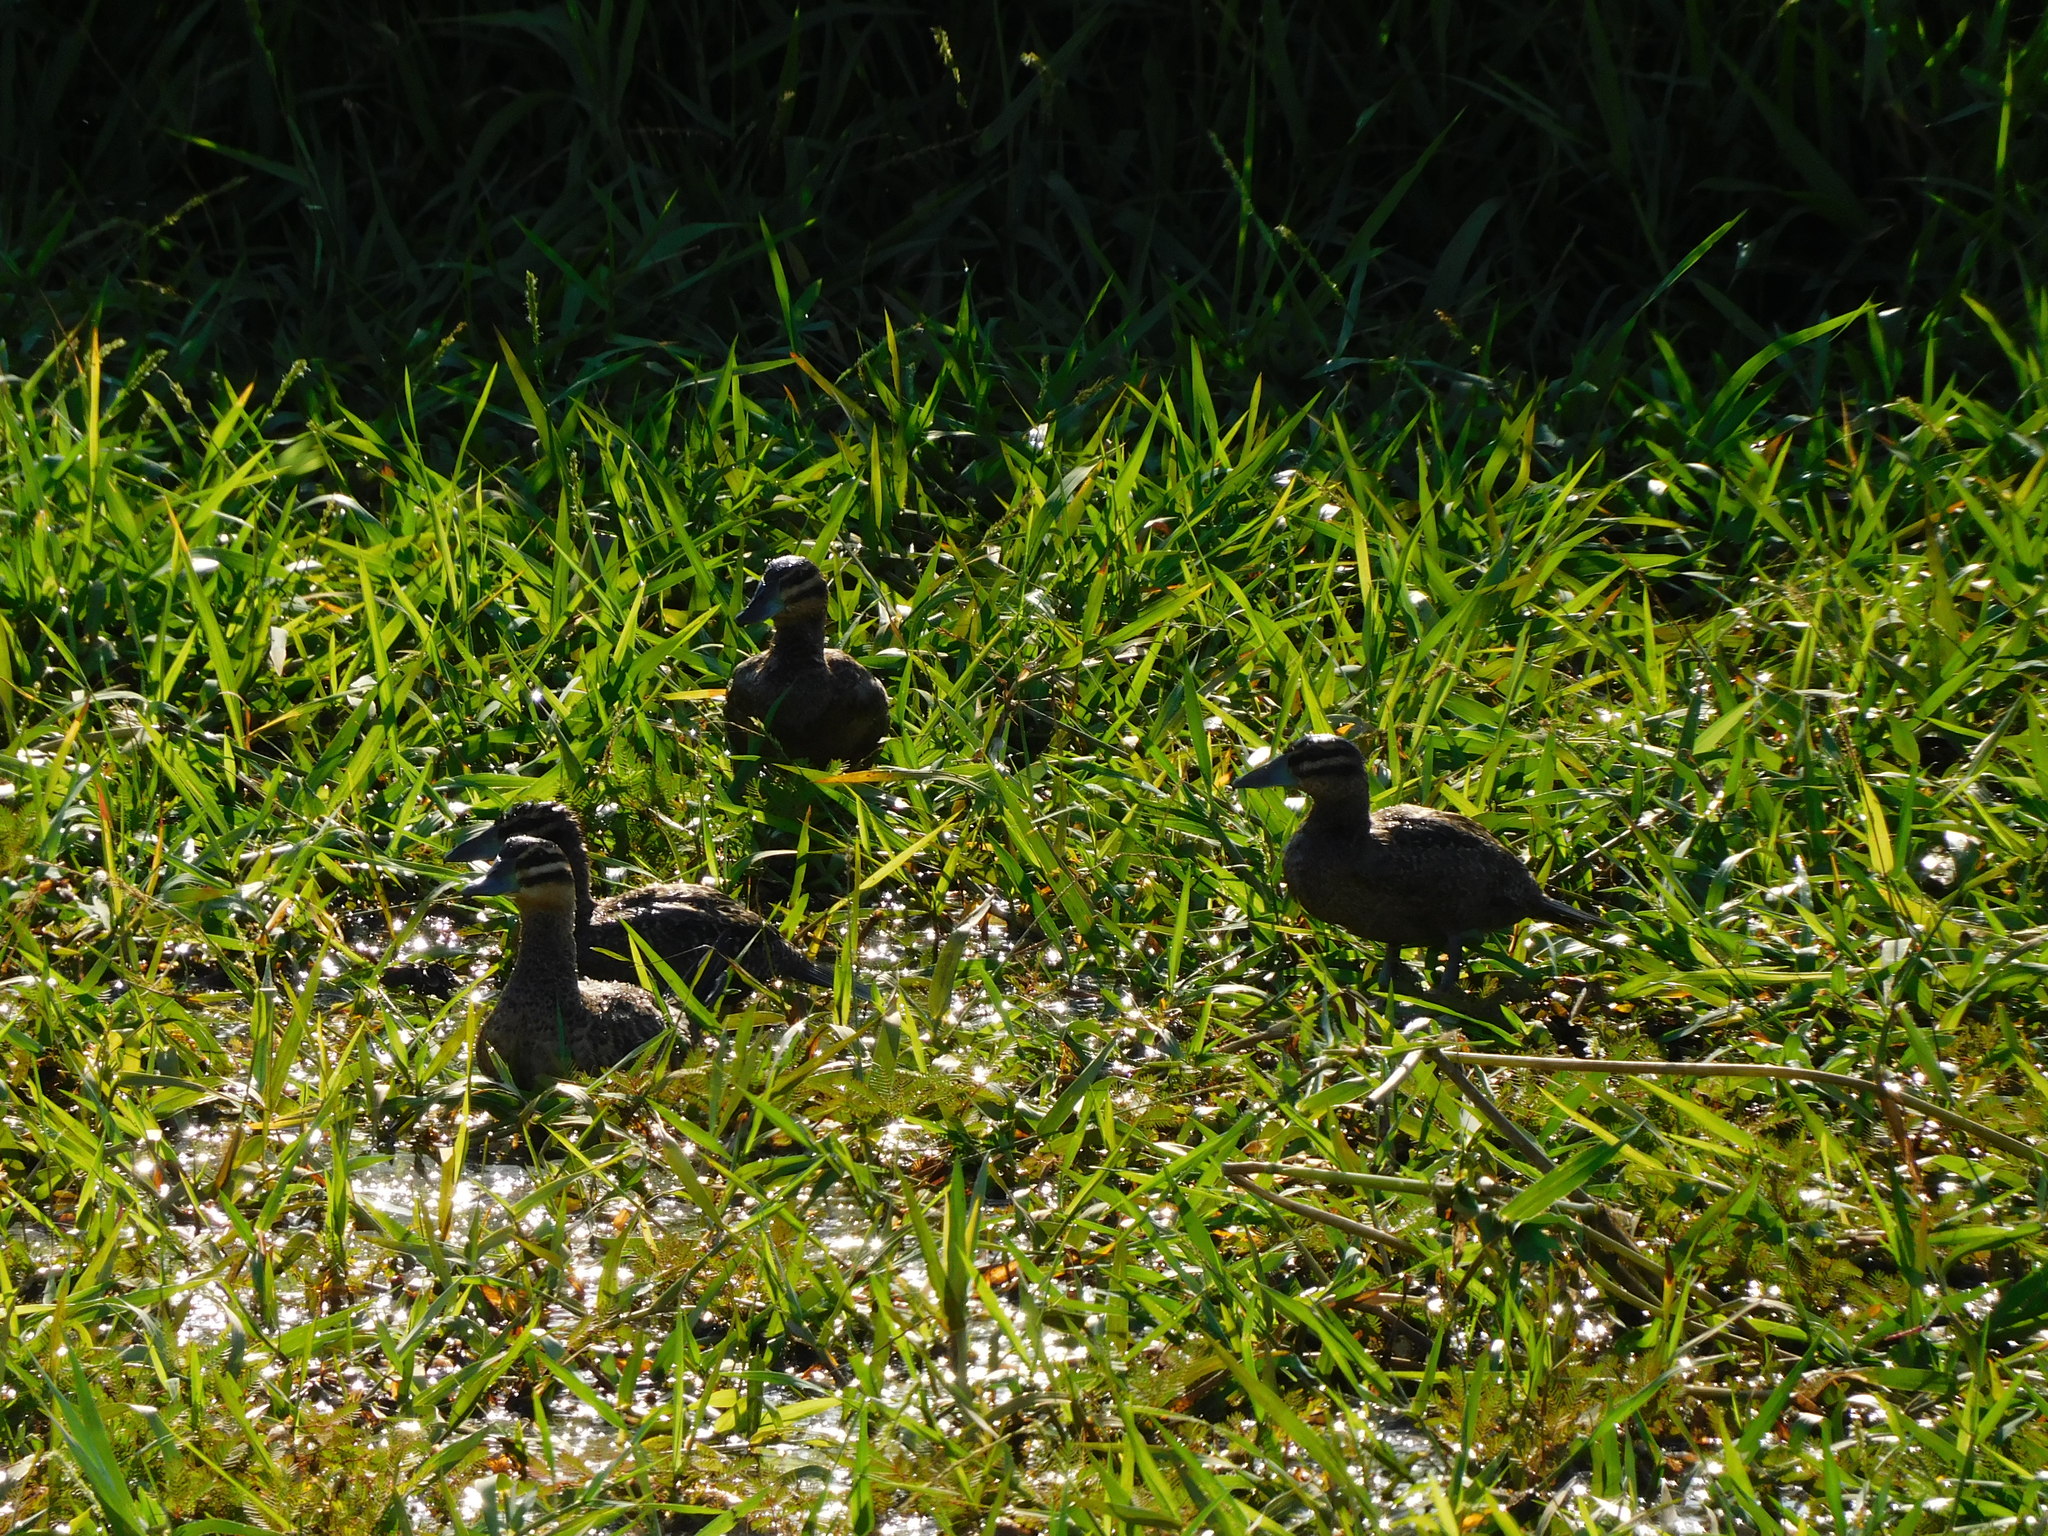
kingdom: Animalia
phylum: Chordata
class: Aves
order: Anseriformes
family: Anatidae
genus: Nomonyx
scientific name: Nomonyx dominicus
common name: Masked duck
